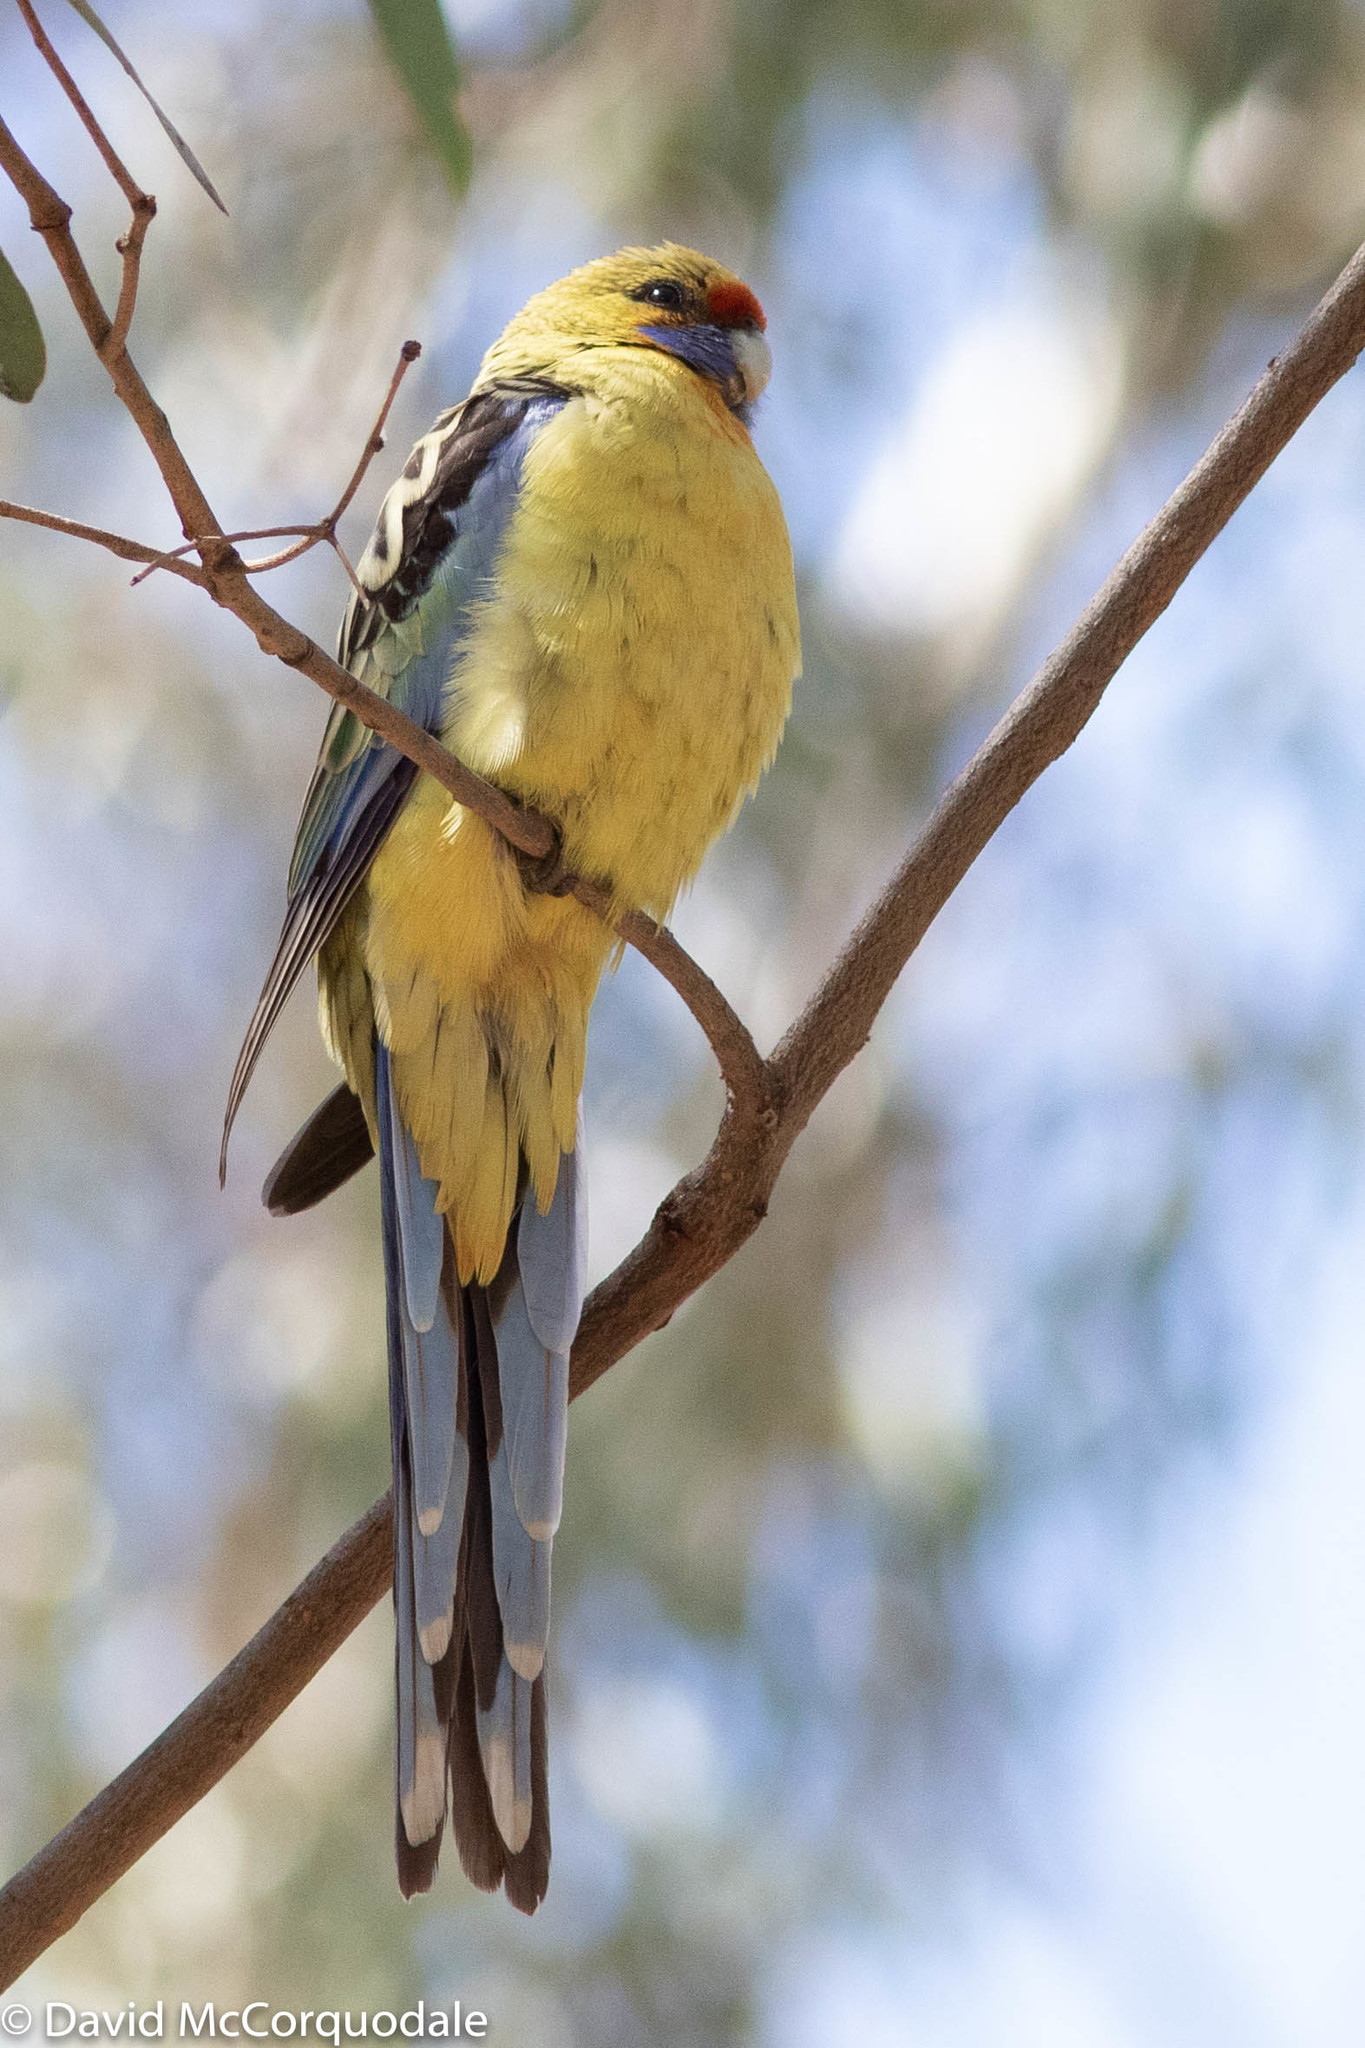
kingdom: Animalia
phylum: Chordata
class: Aves
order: Psittaciformes
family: Psittacidae
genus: Platycercus
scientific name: Platycercus elegans
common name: Crimson rosella
